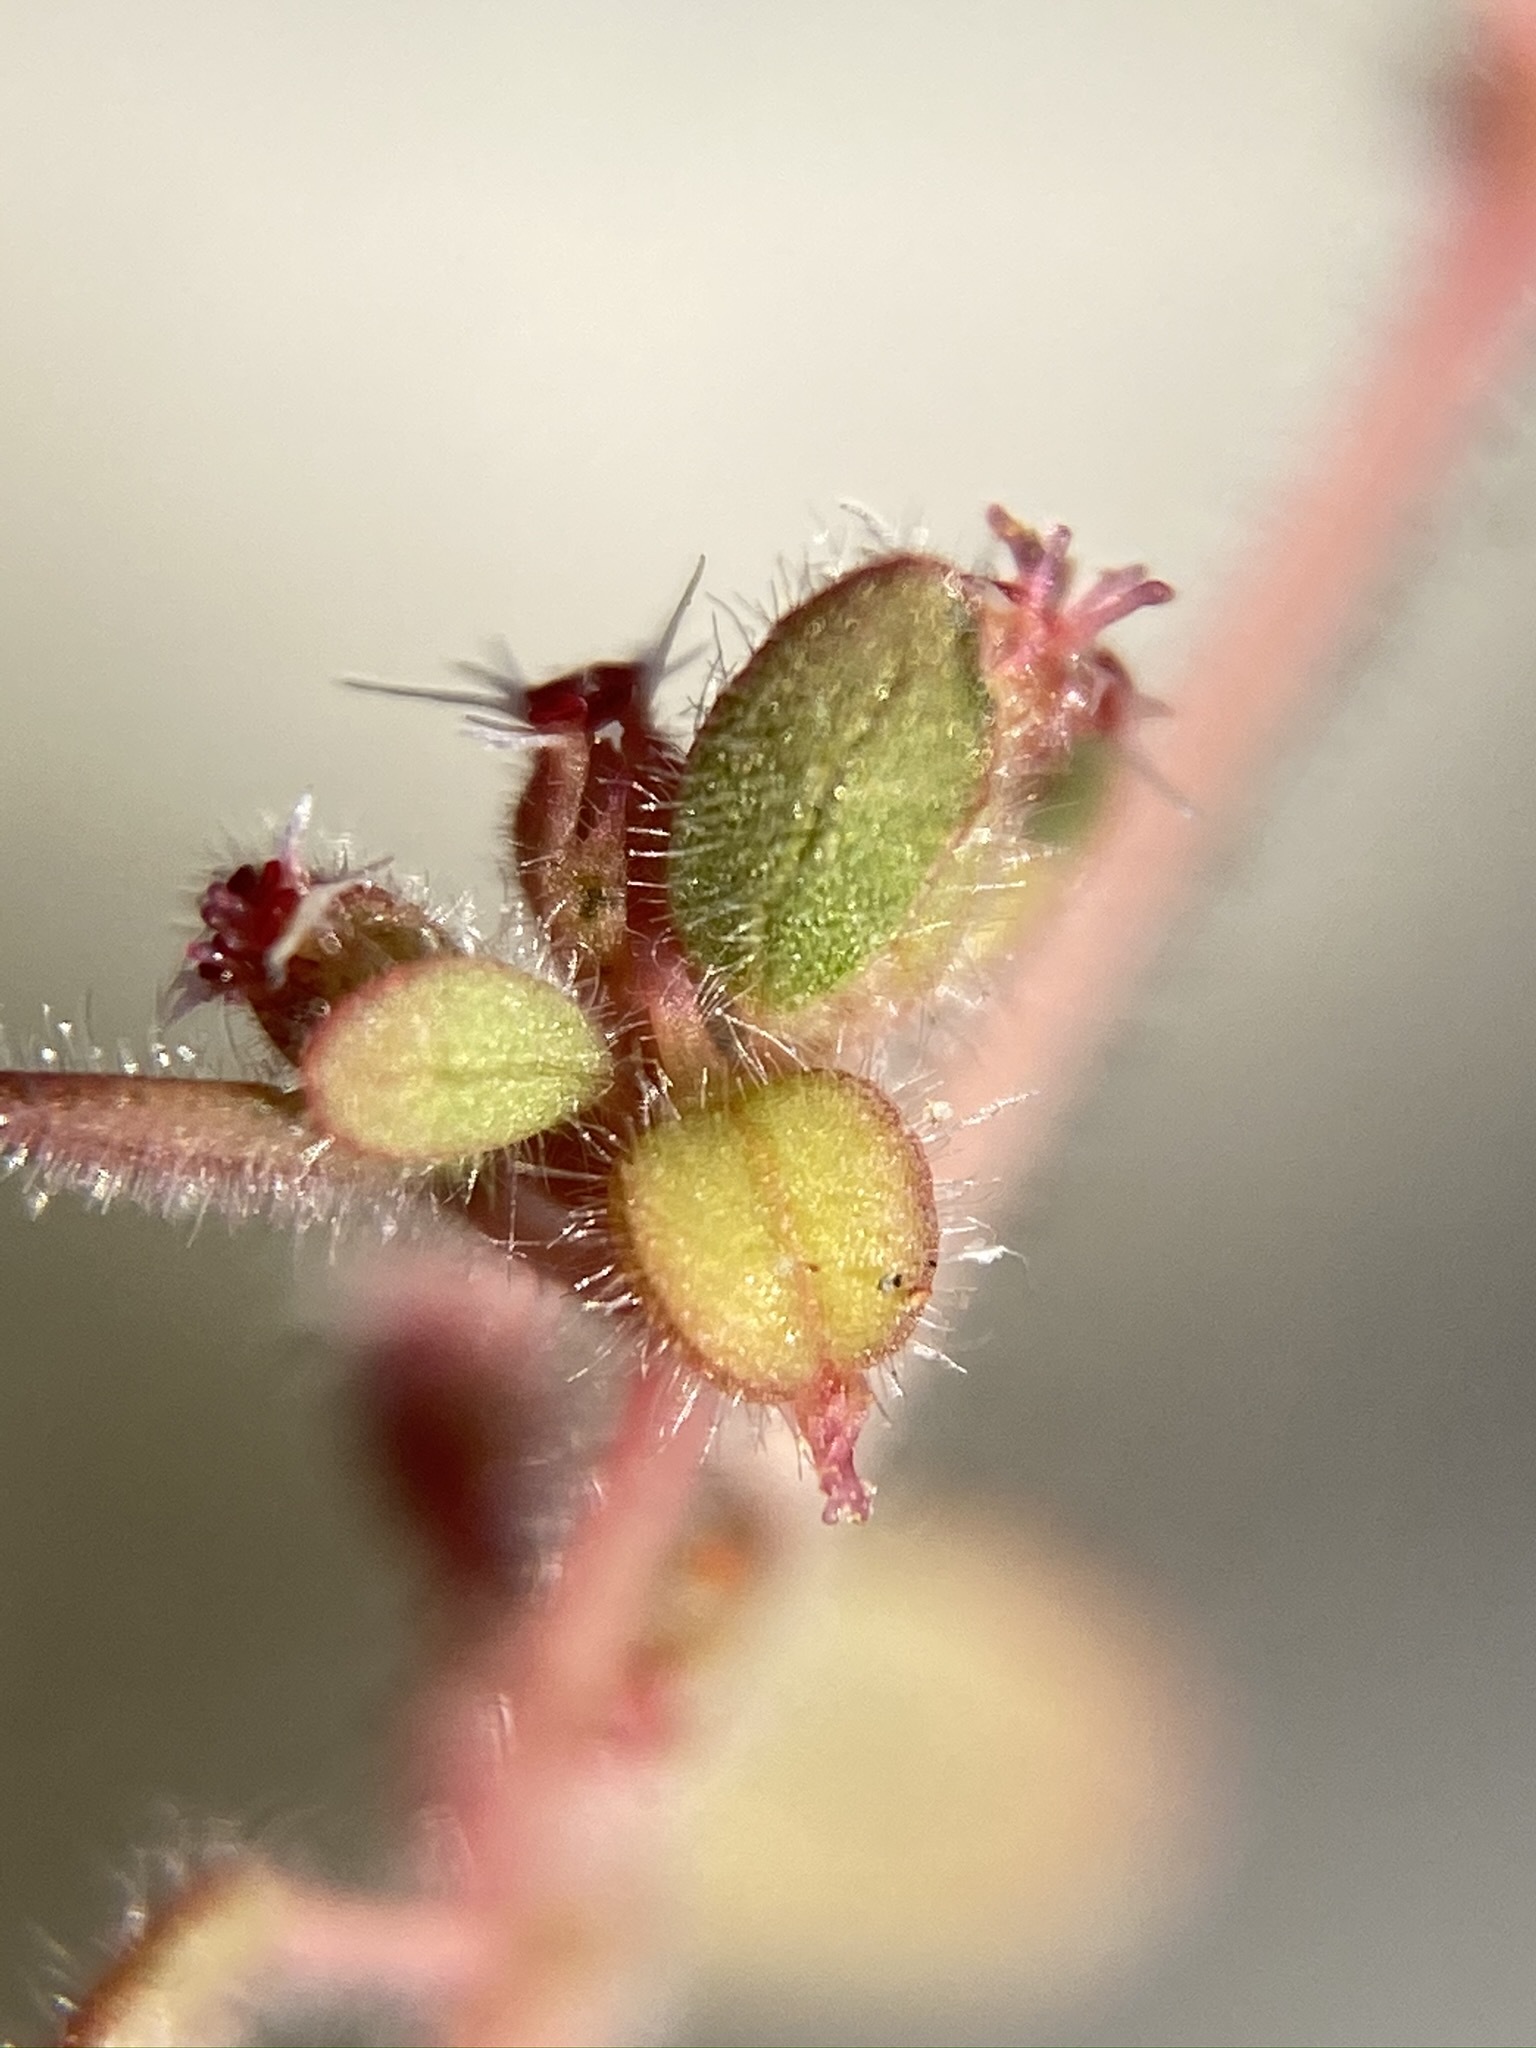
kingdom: Plantae
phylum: Tracheophyta
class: Magnoliopsida
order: Malpighiales
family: Euphorbiaceae
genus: Euphorbia
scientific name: Euphorbia setiloba
